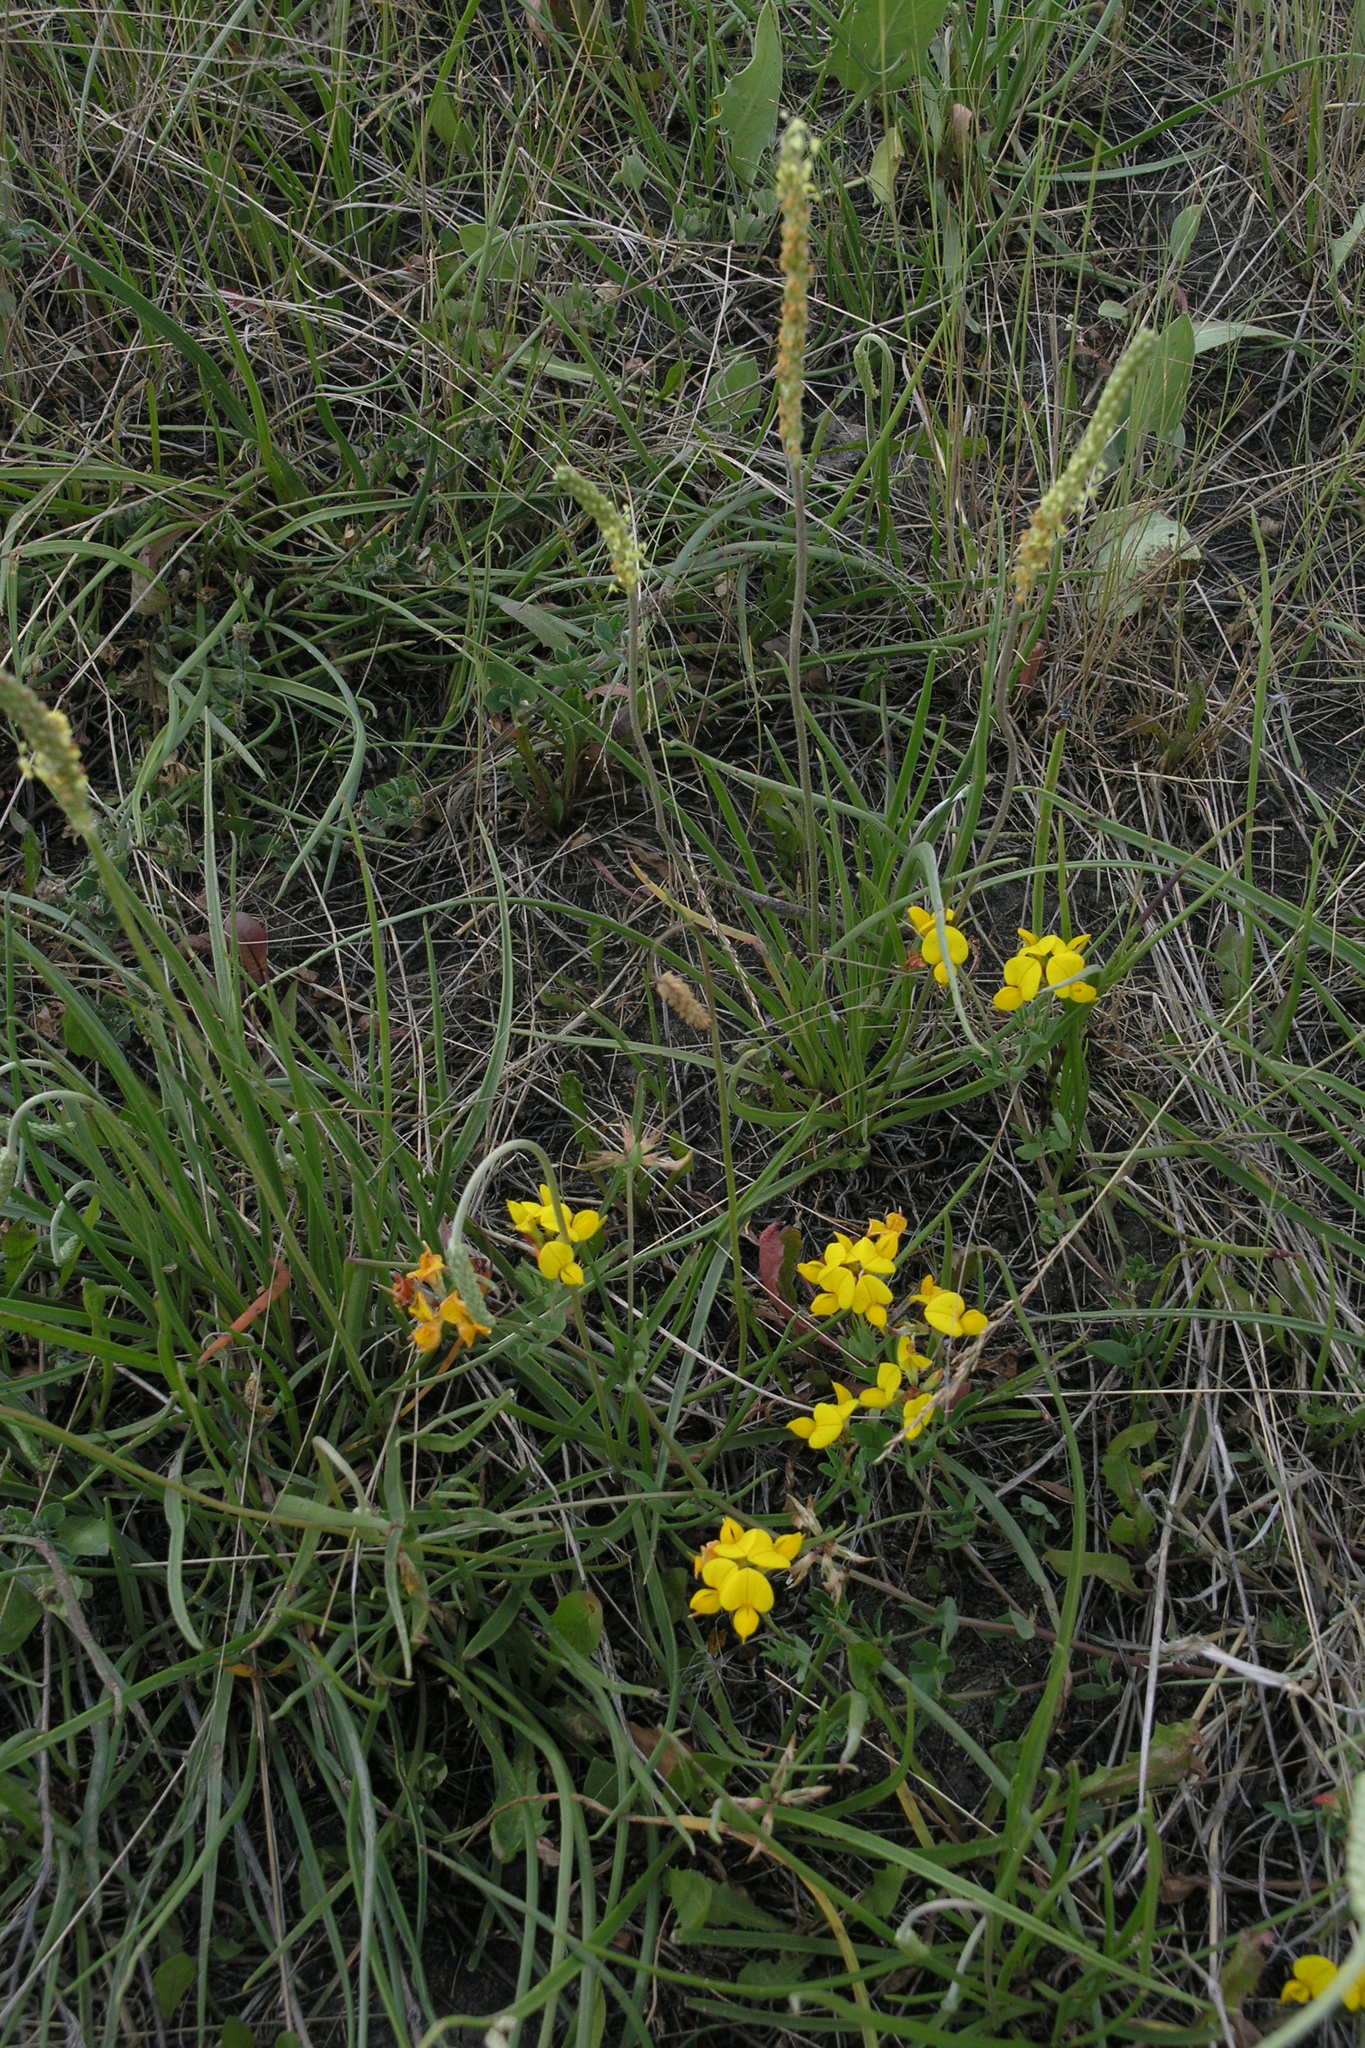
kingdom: Plantae
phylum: Tracheophyta
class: Magnoliopsida
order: Lamiales
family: Plantaginaceae
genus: Plantago
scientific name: Plantago salsa
